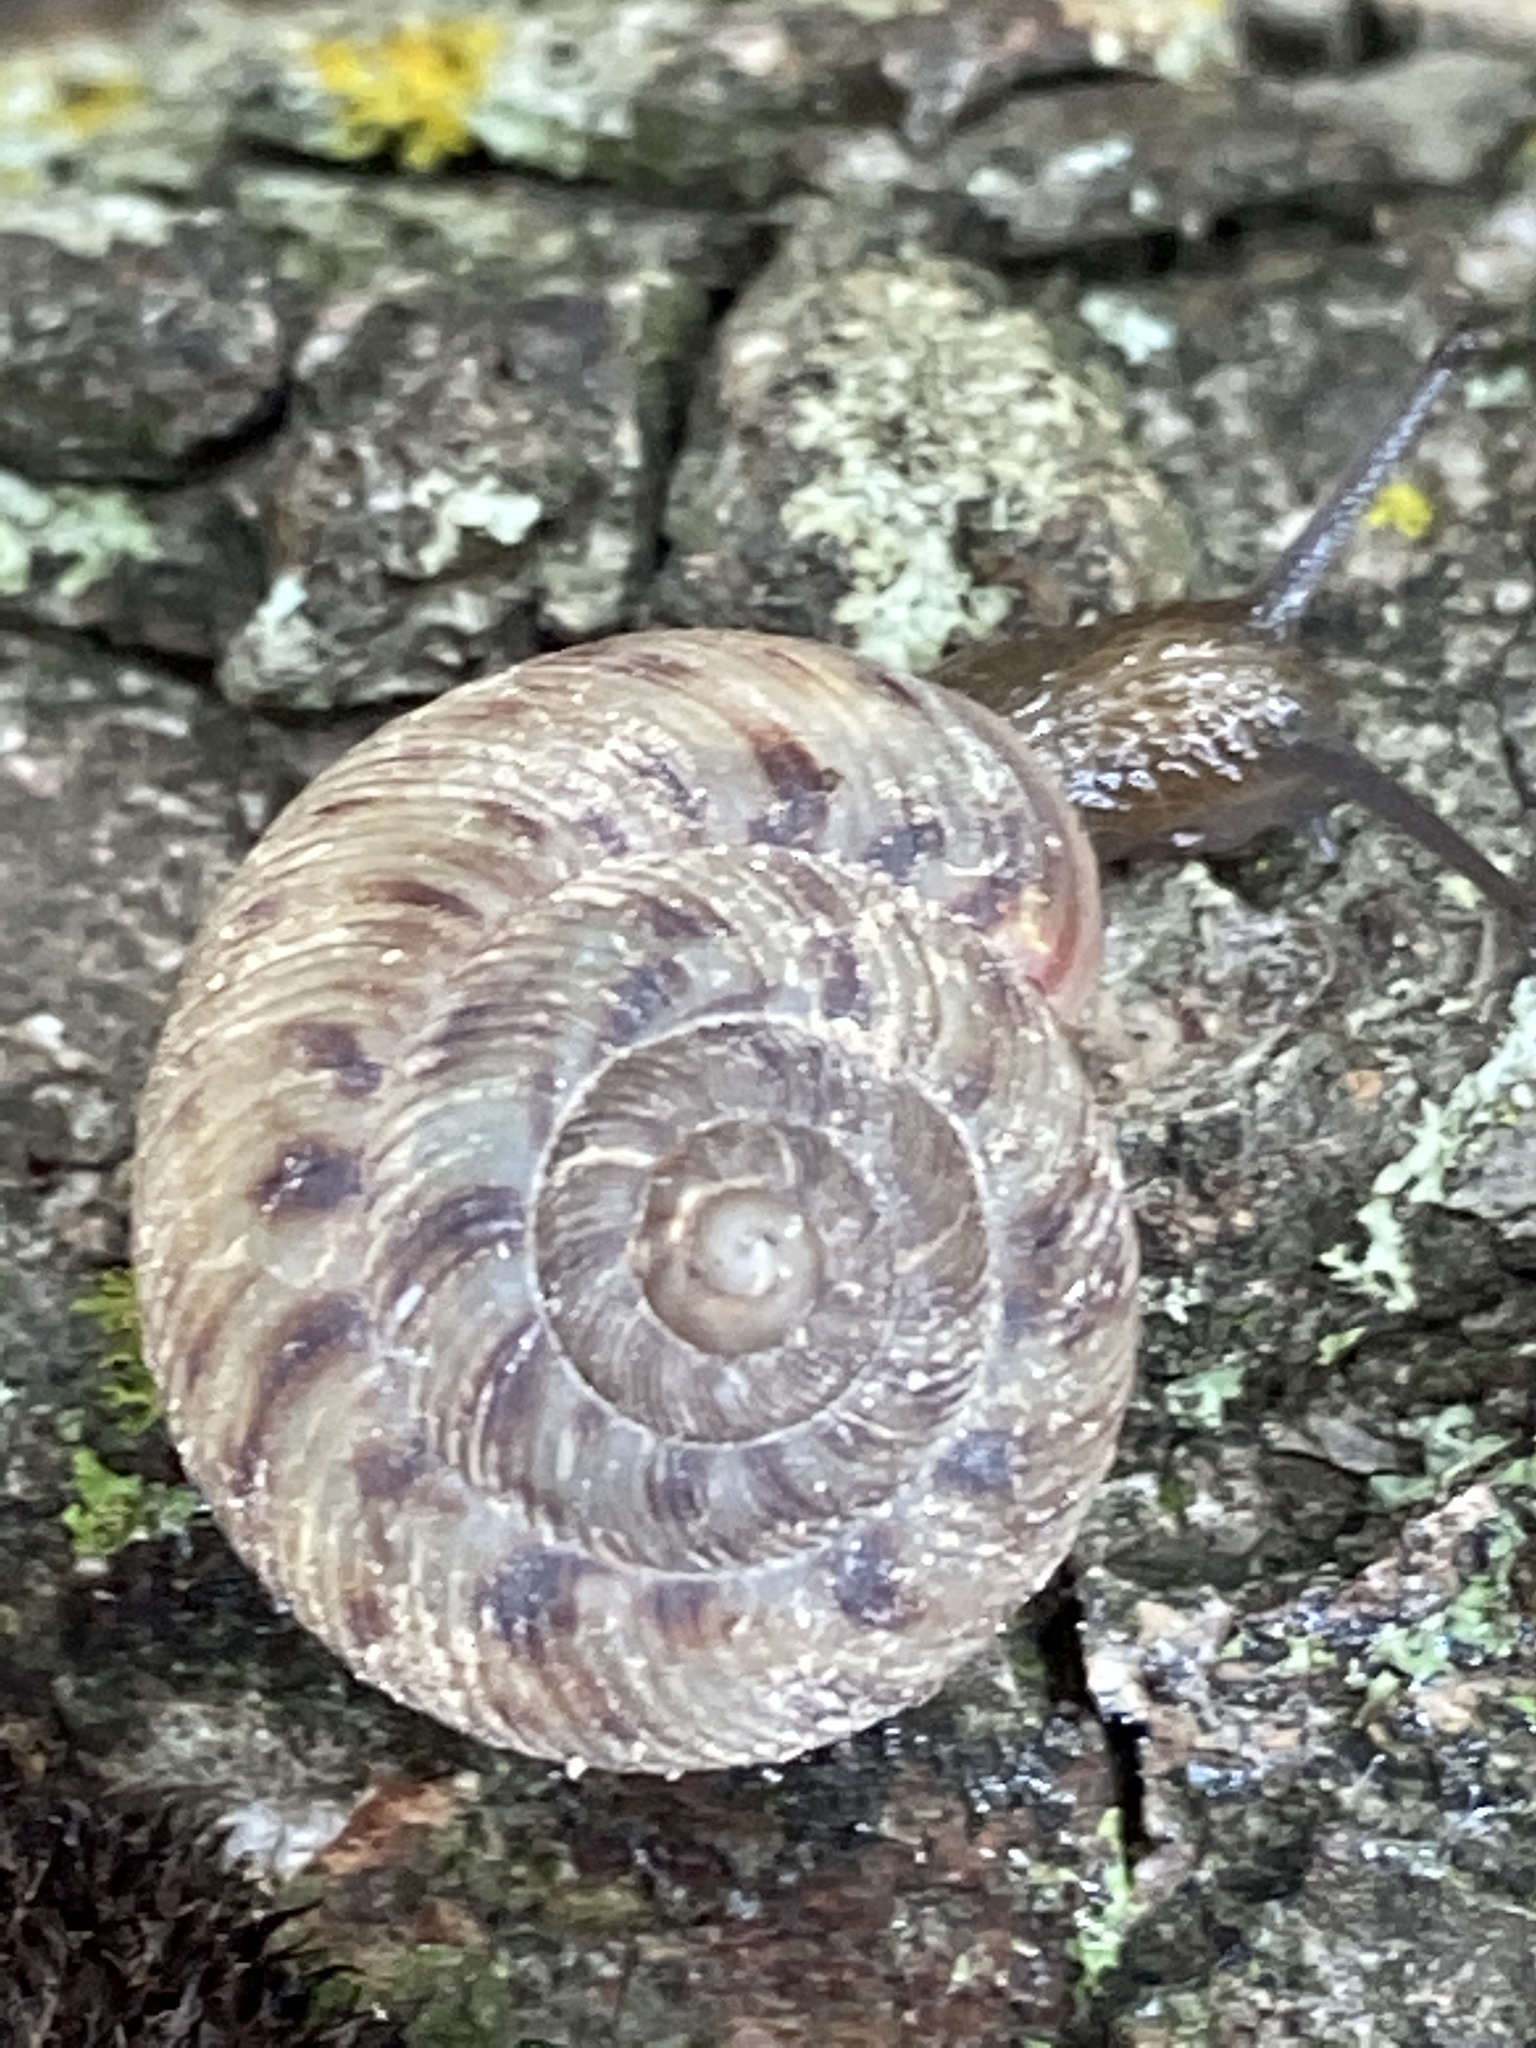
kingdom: Animalia
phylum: Mollusca
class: Gastropoda
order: Stylommatophora
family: Discidae
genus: Anguispira
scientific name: Anguispira alternata
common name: Flamed tigersnail
